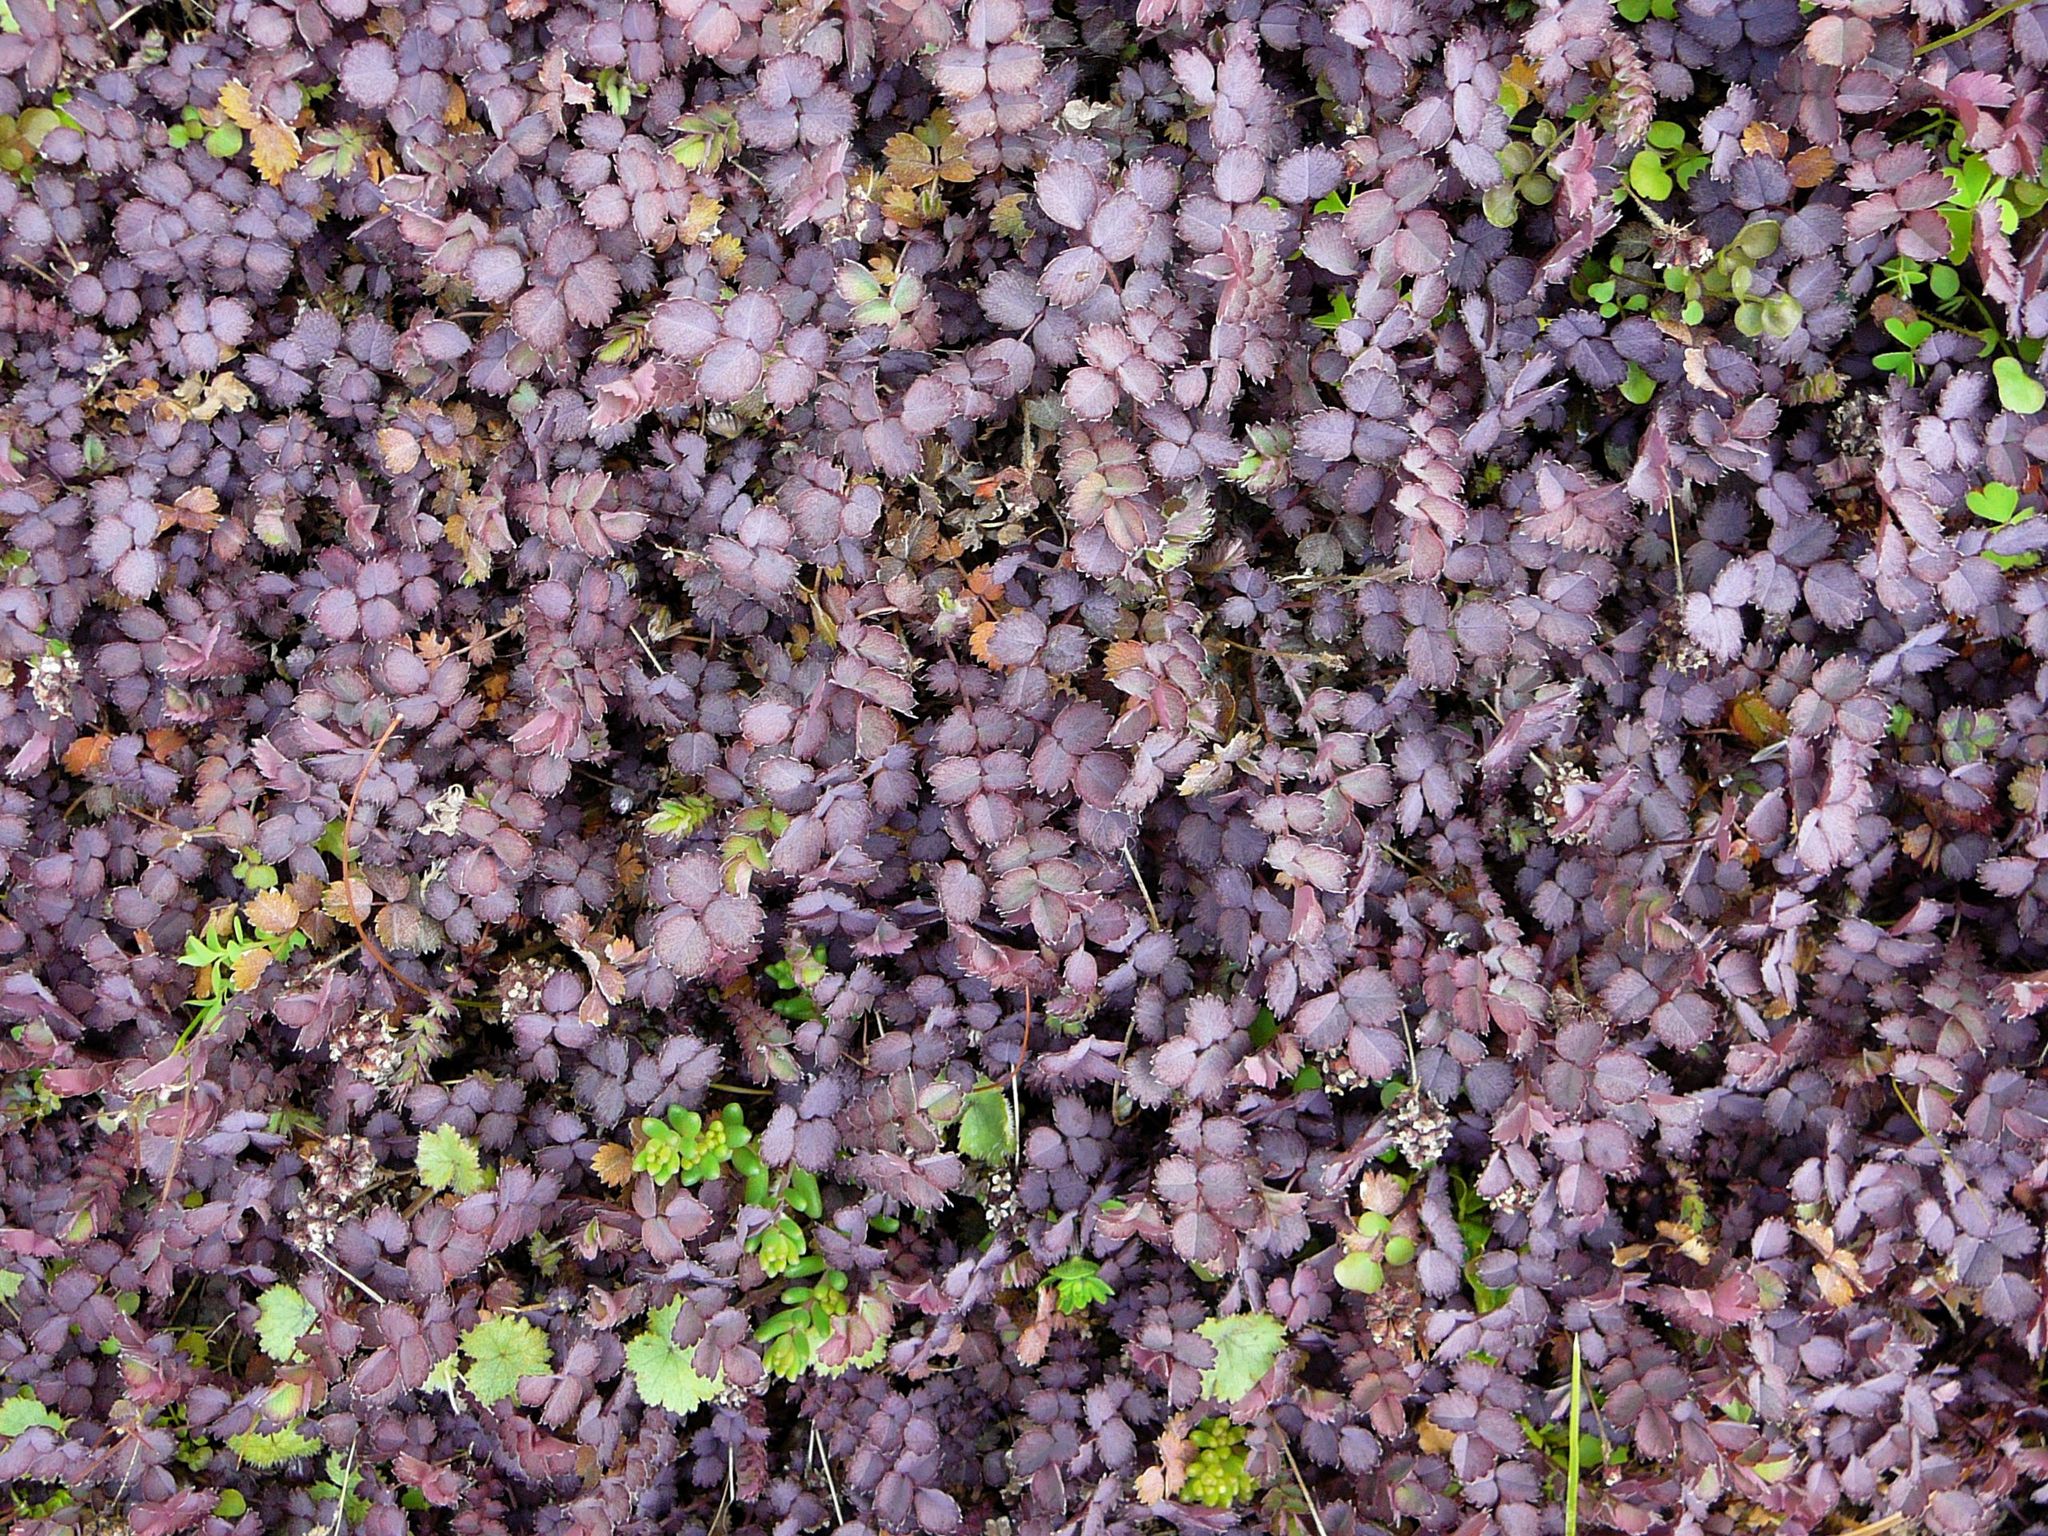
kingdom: Plantae
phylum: Tracheophyta
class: Magnoliopsida
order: Rosales
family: Rosaceae
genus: Acaena
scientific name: Acaena inermis
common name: Spineless acaena
